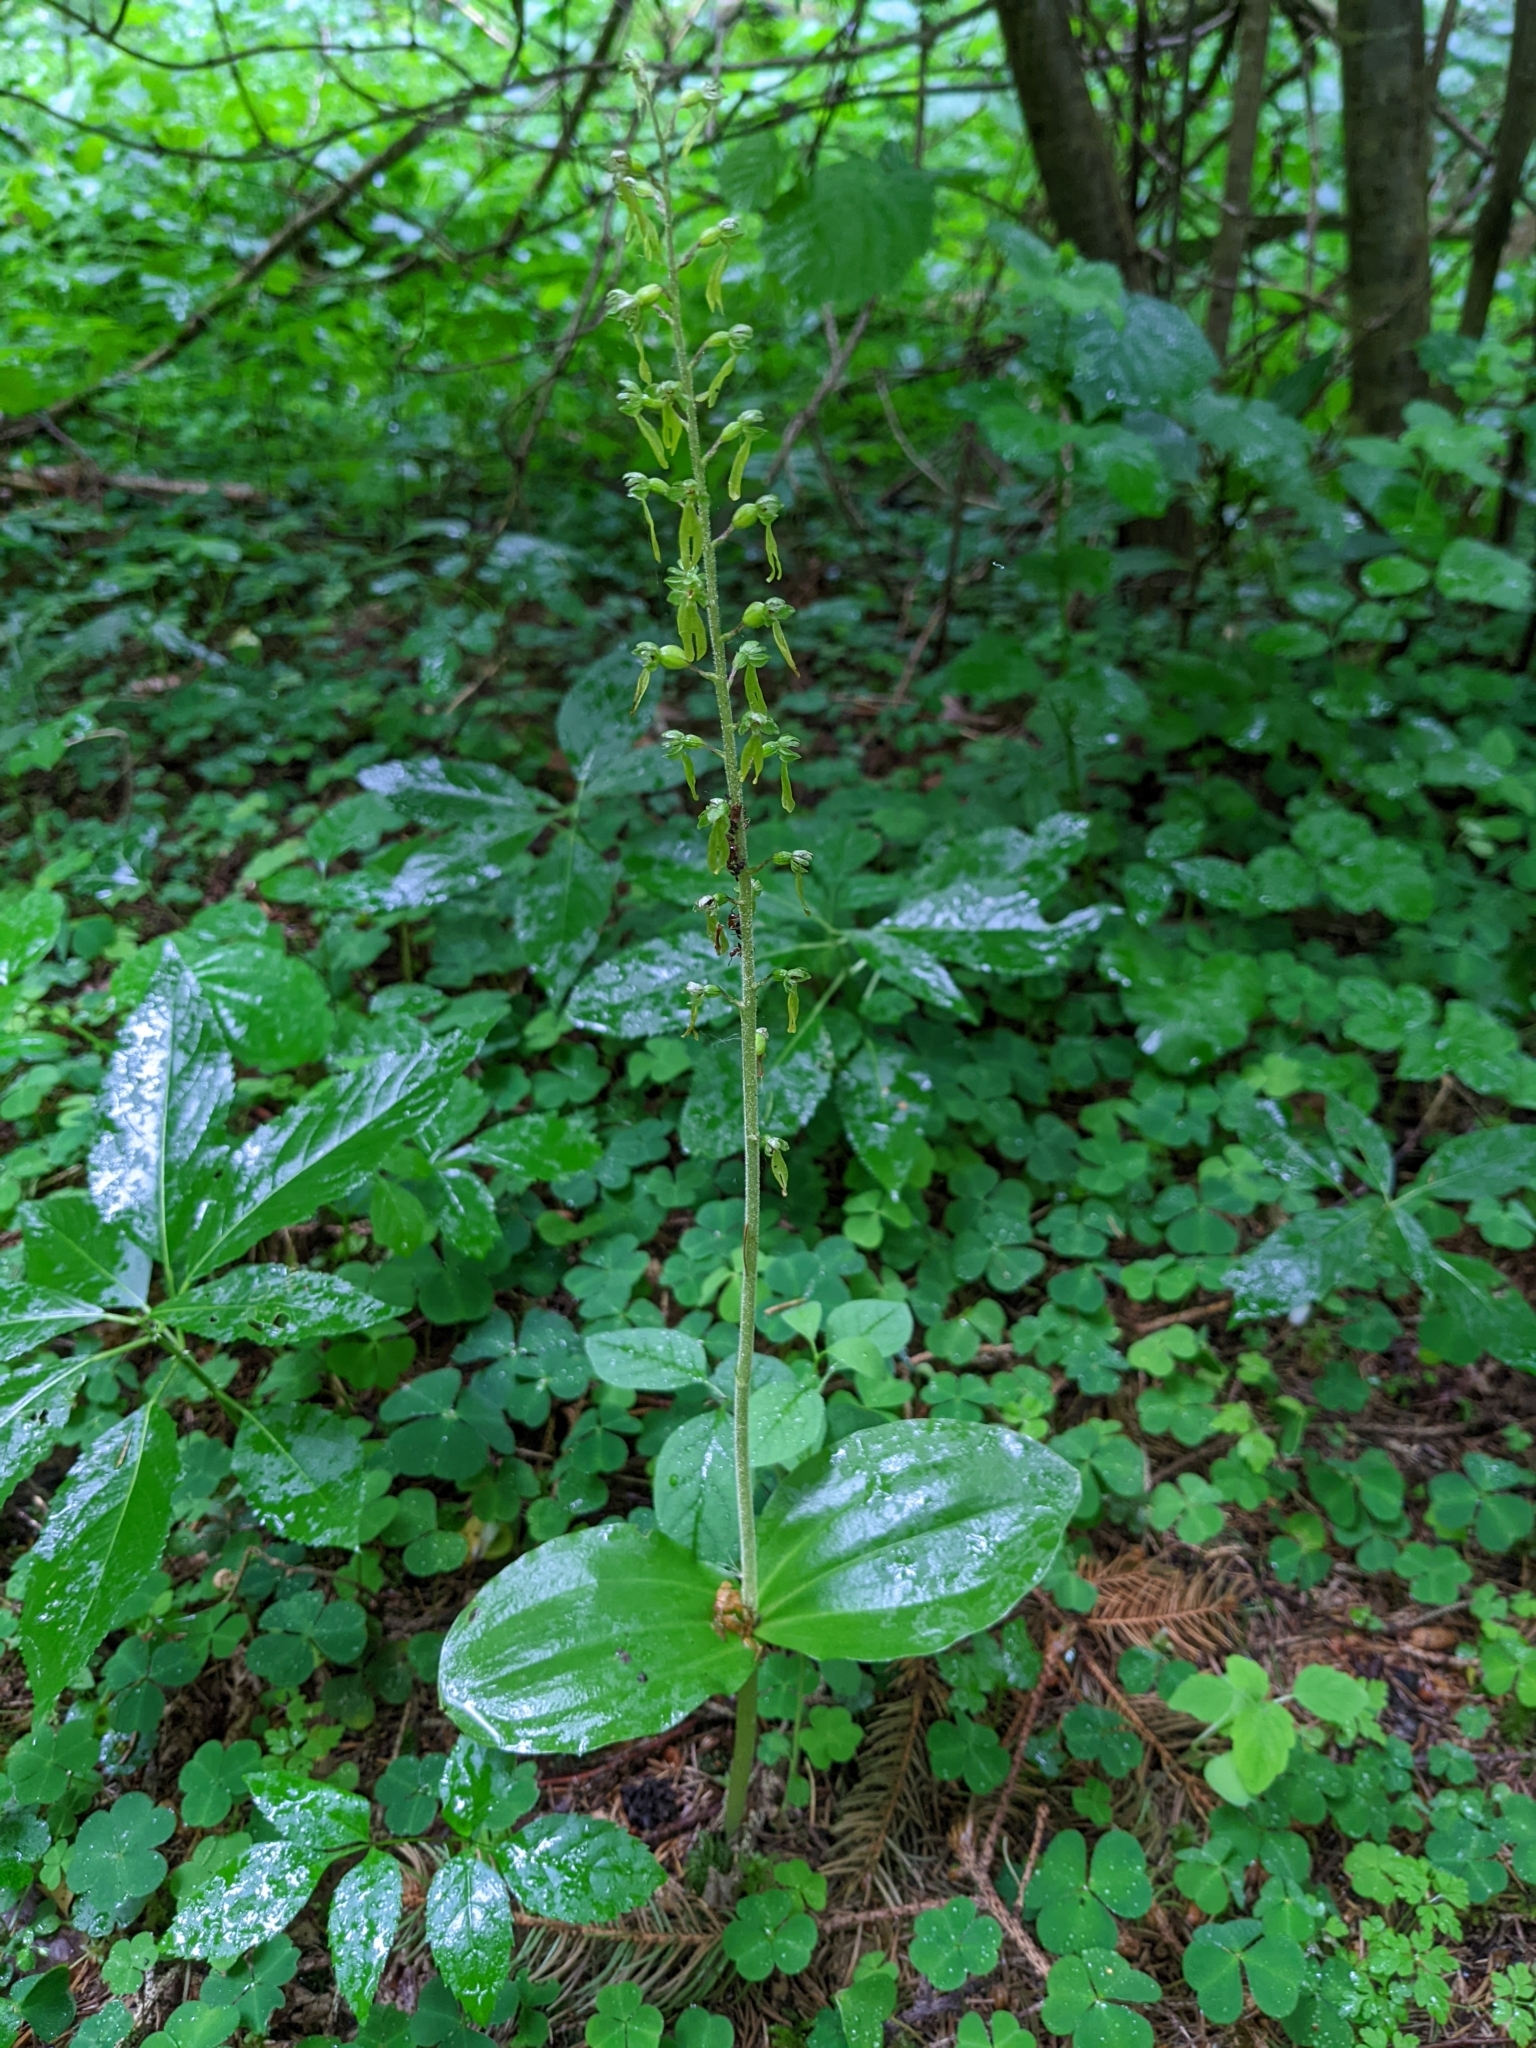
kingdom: Plantae
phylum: Tracheophyta
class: Liliopsida
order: Asparagales
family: Orchidaceae
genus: Neottia
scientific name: Neottia ovata
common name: Common twayblade
